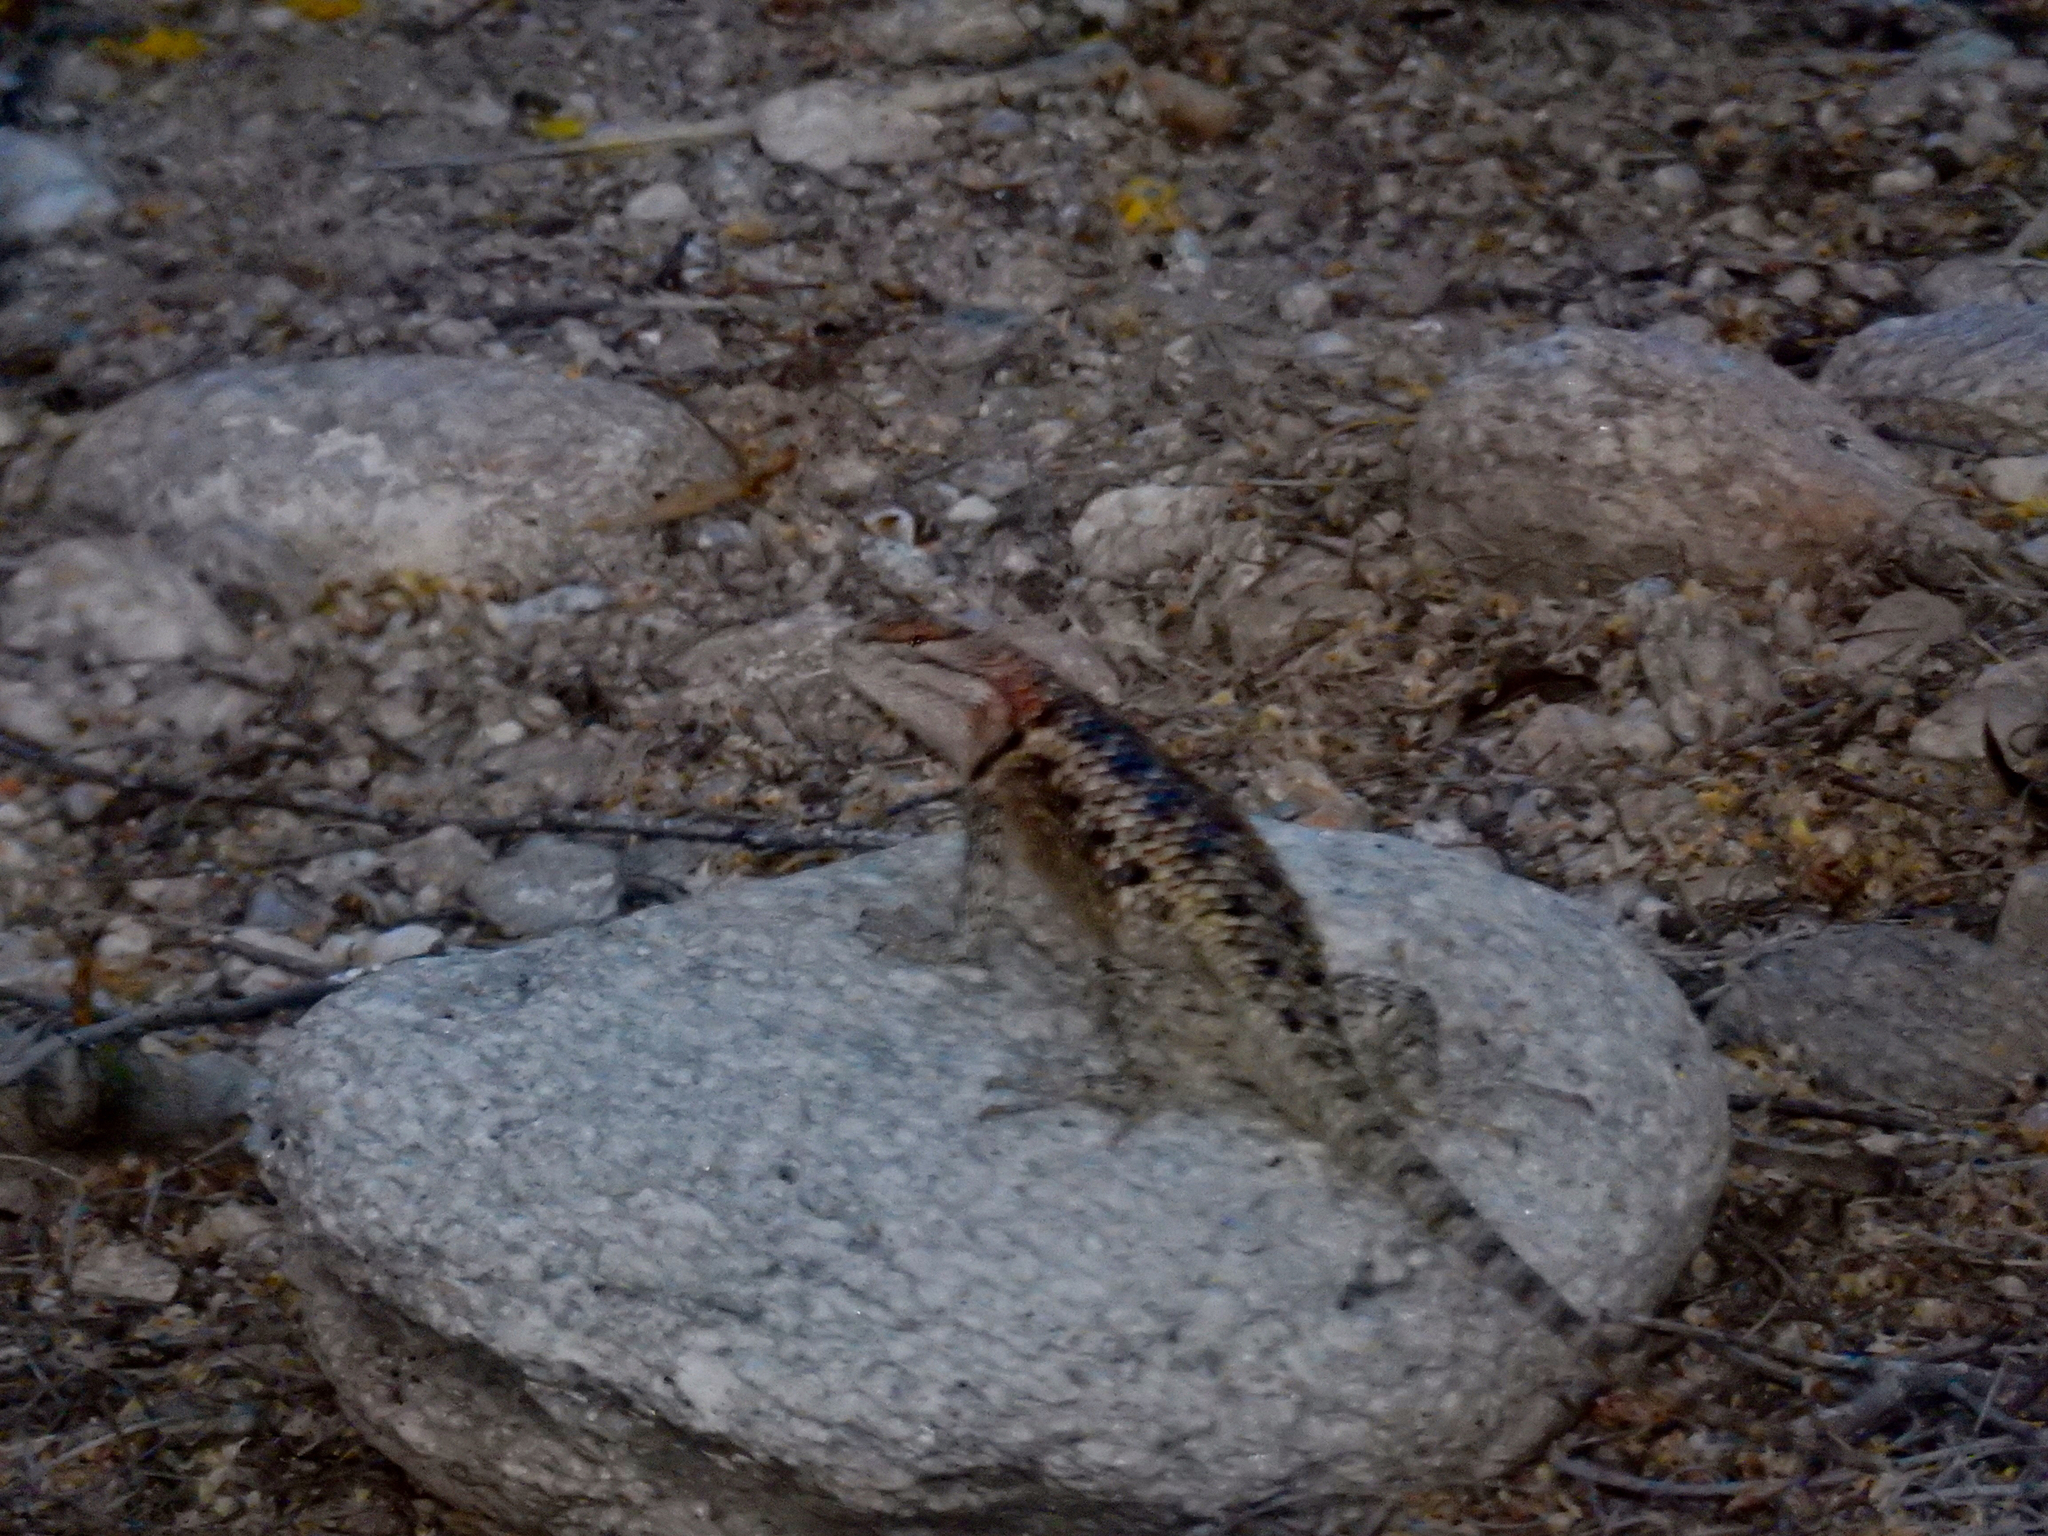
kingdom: Animalia
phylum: Chordata
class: Squamata
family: Phrynosomatidae
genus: Sceloporus
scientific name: Sceloporus magister
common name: Desert spiny lizard
